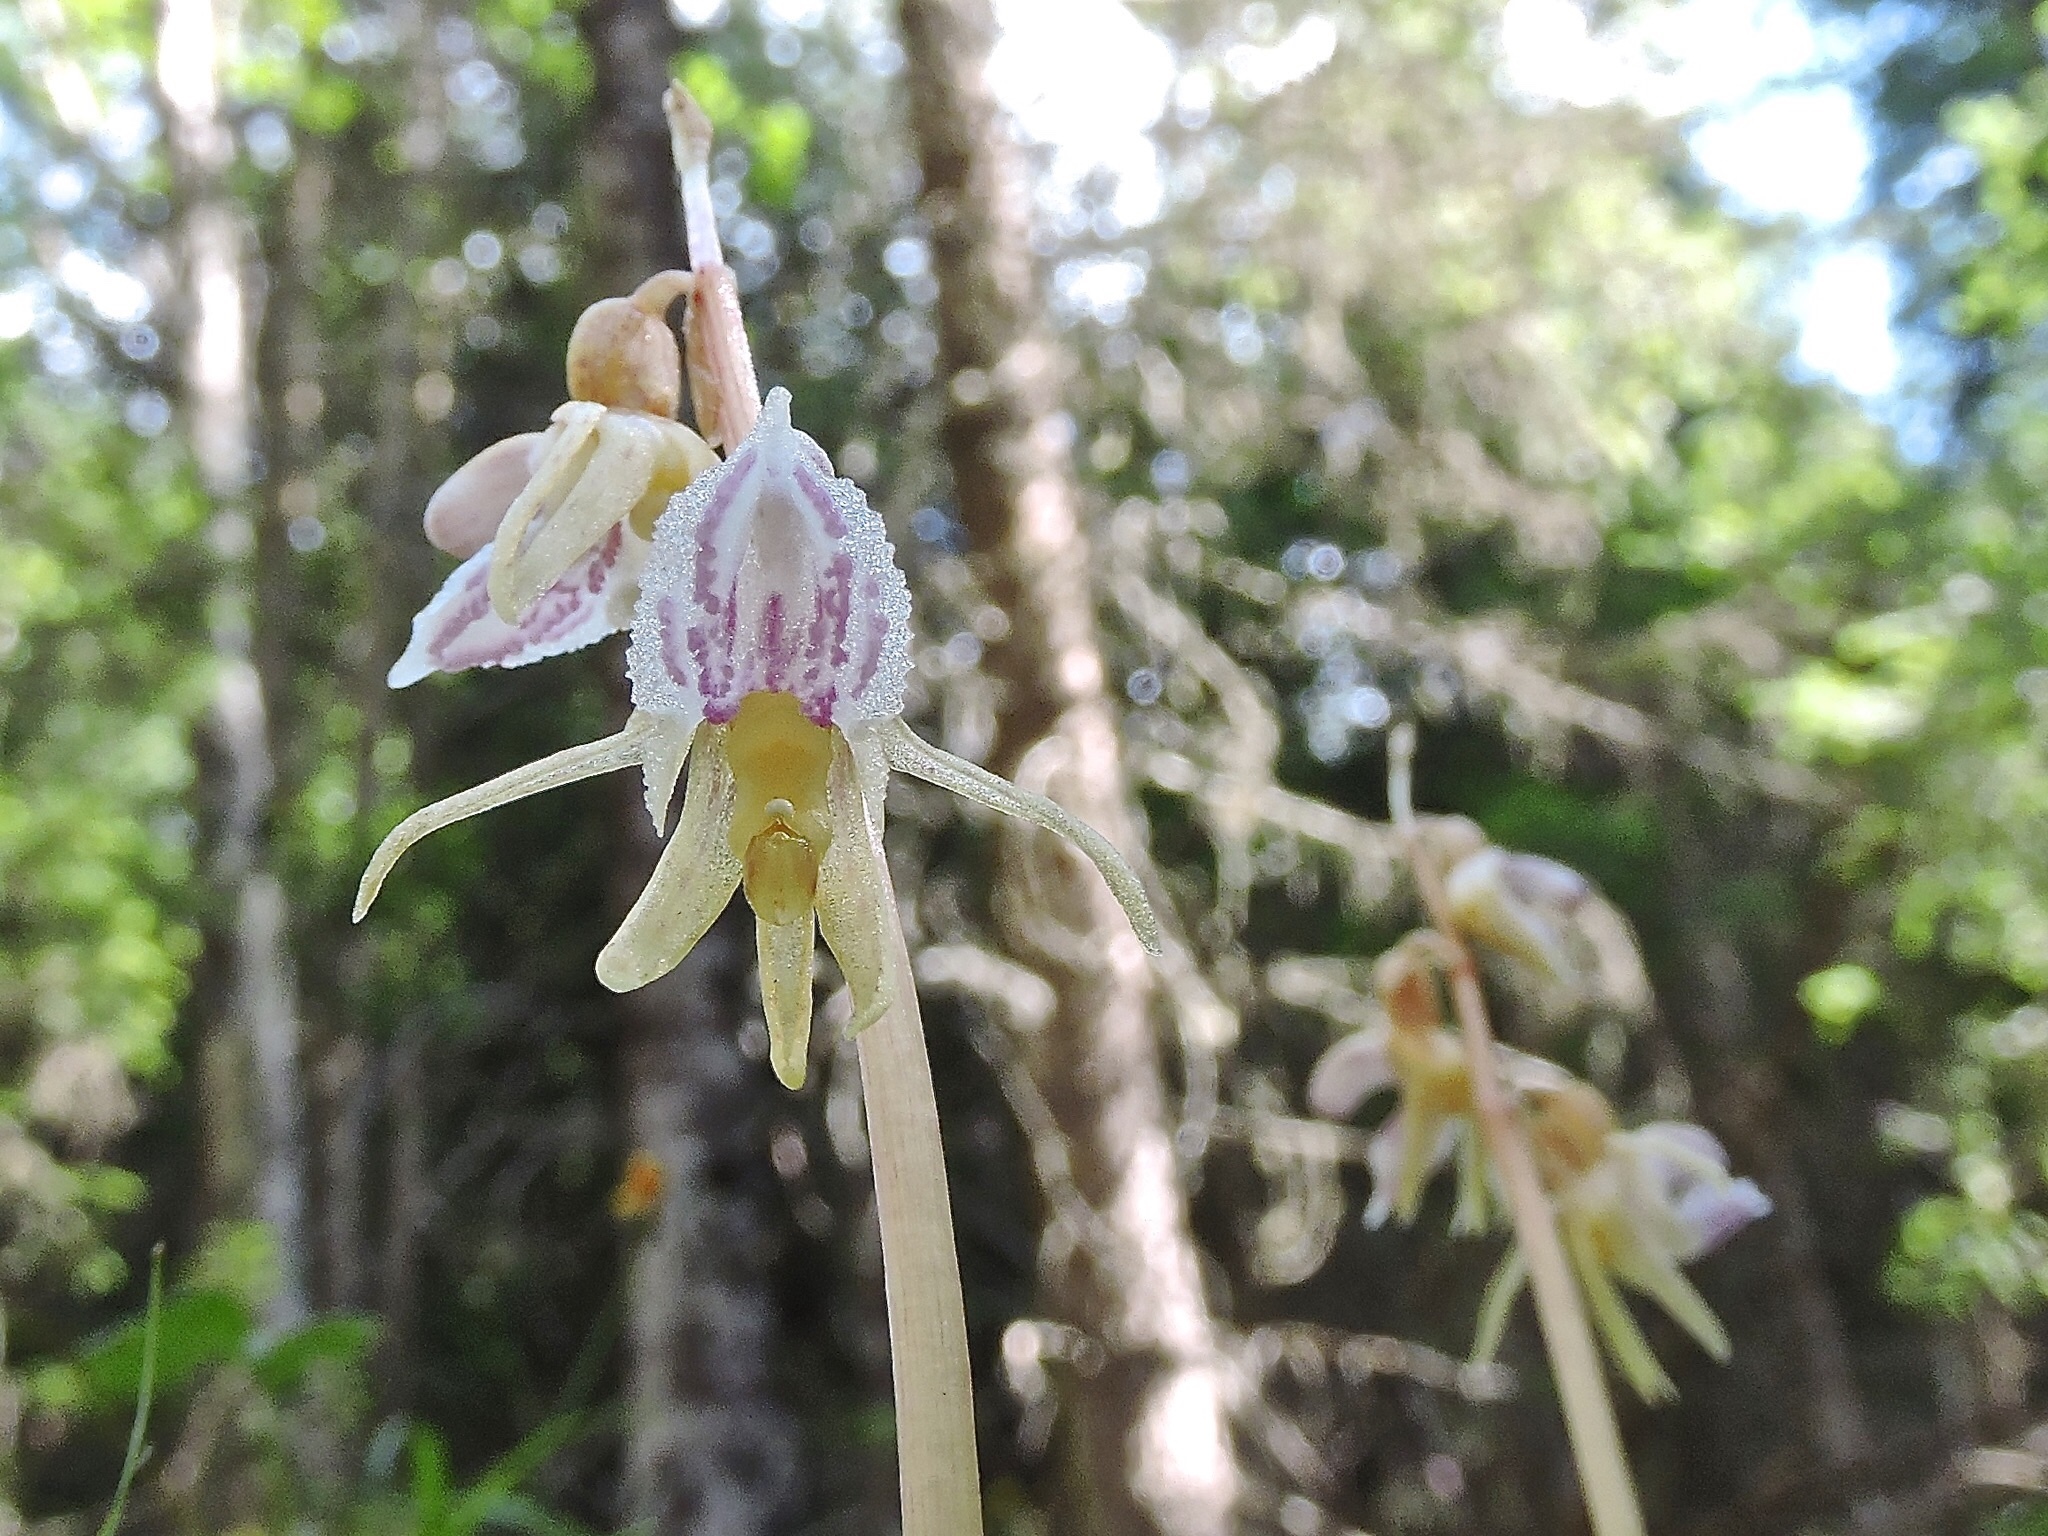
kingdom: Plantae
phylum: Tracheophyta
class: Liliopsida
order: Asparagales
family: Orchidaceae
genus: Epipogium
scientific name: Epipogium aphyllum
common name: Ghost orchid
